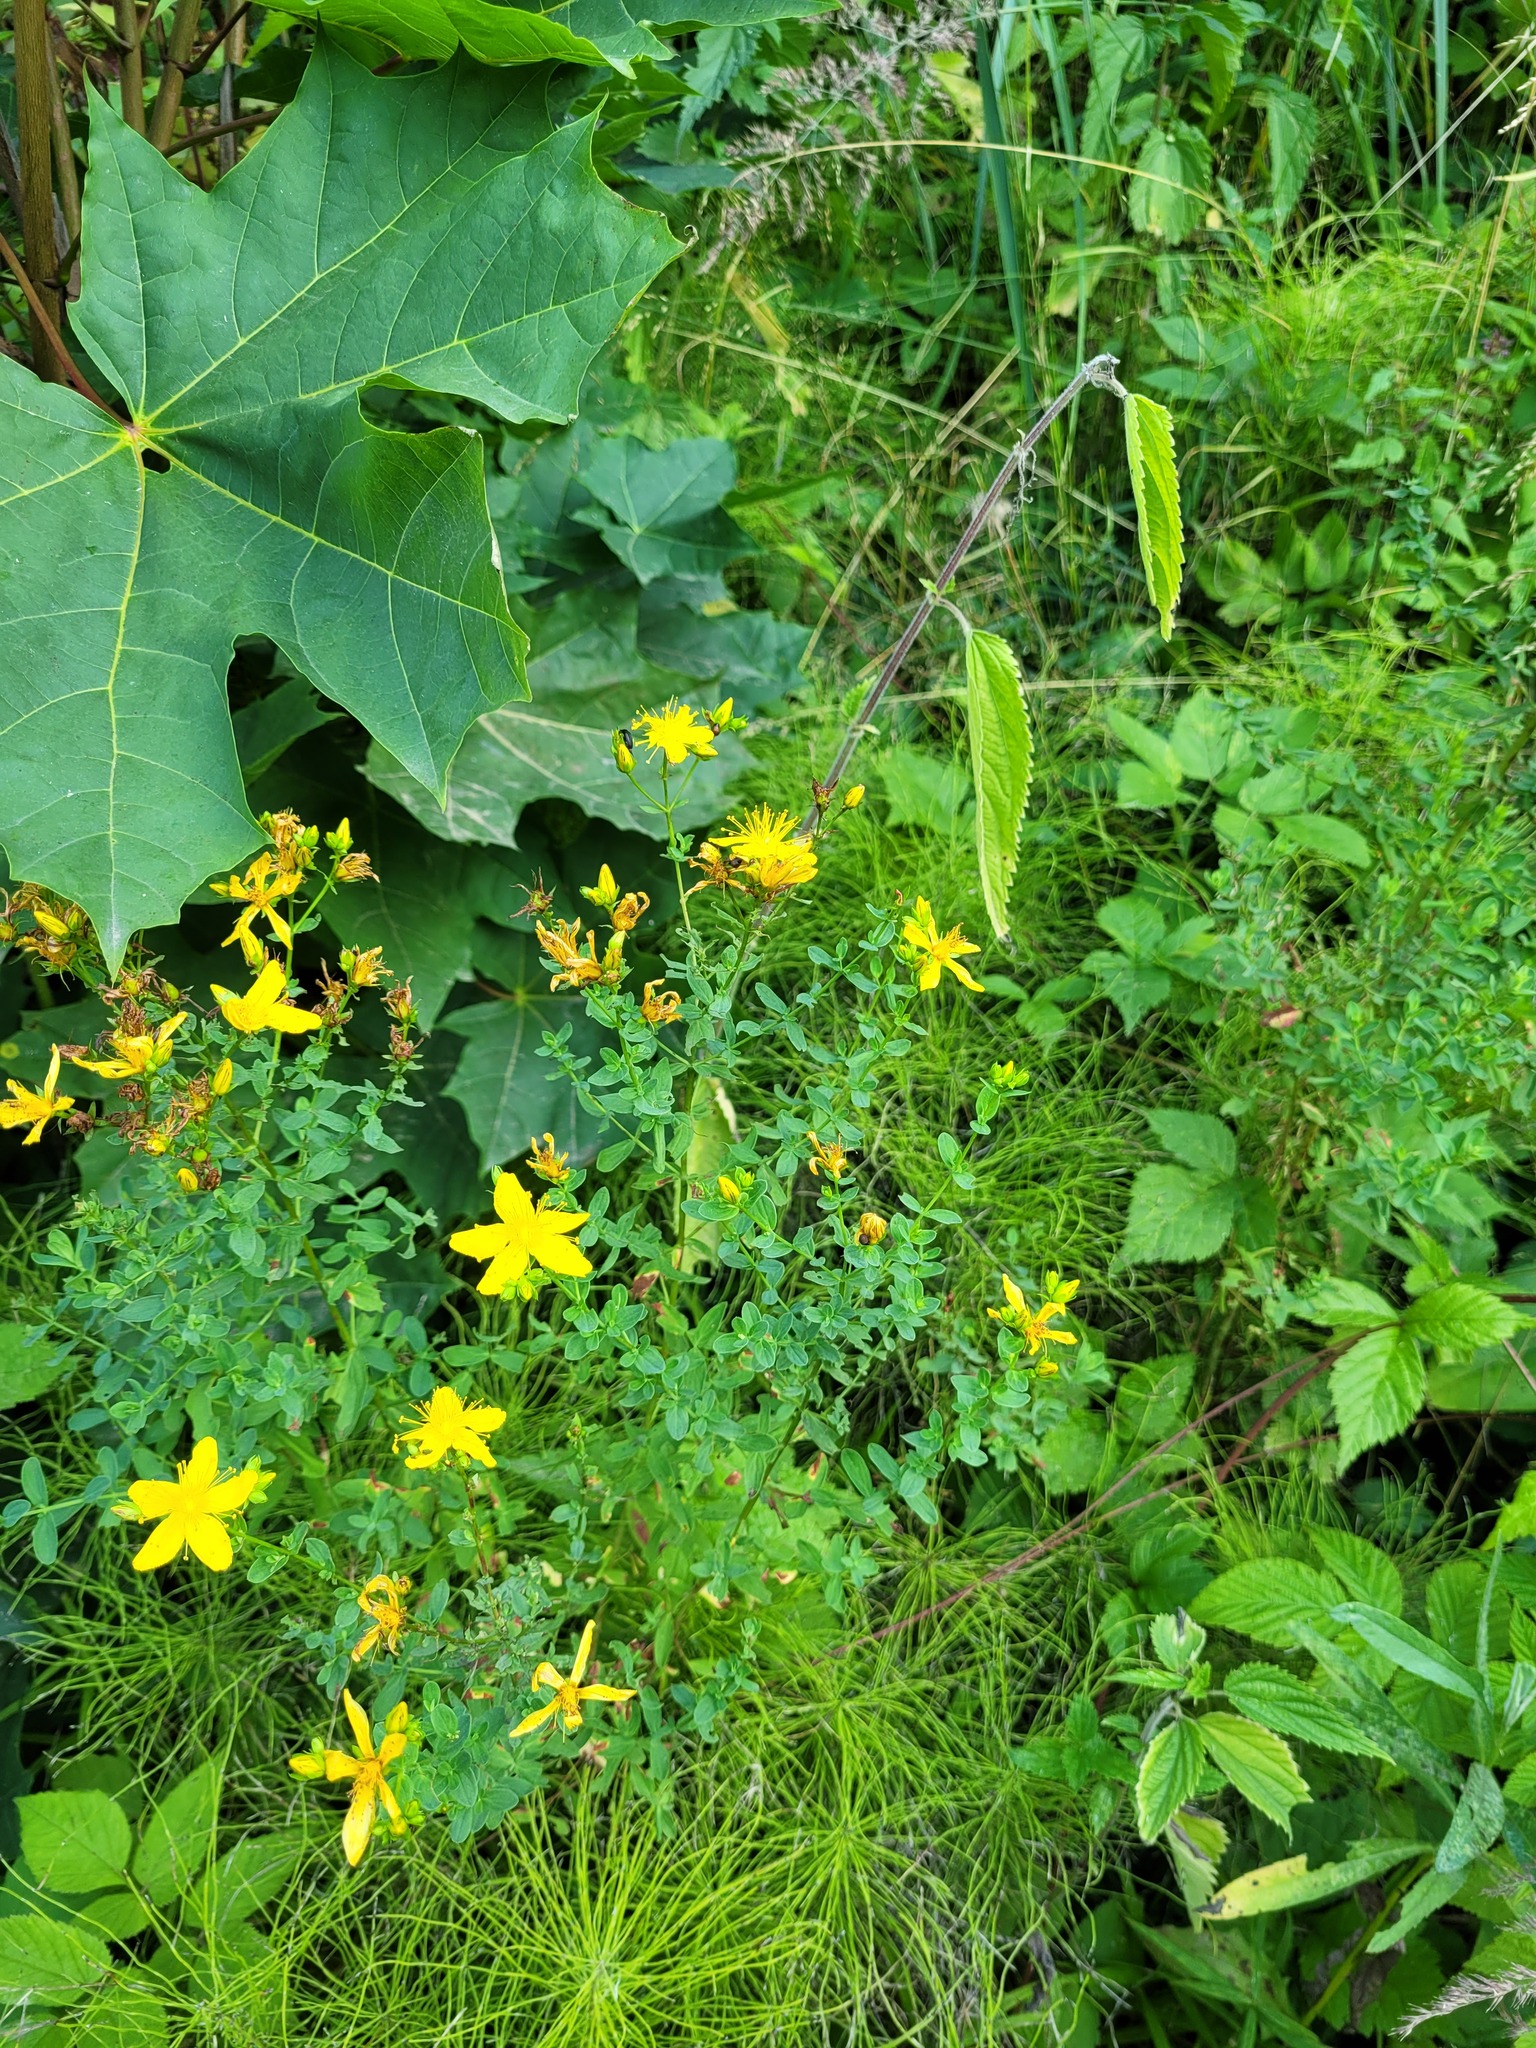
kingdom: Plantae
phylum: Tracheophyta
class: Magnoliopsida
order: Malpighiales
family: Hypericaceae
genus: Hypericum
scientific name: Hypericum perforatum
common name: Common st. johnswort
